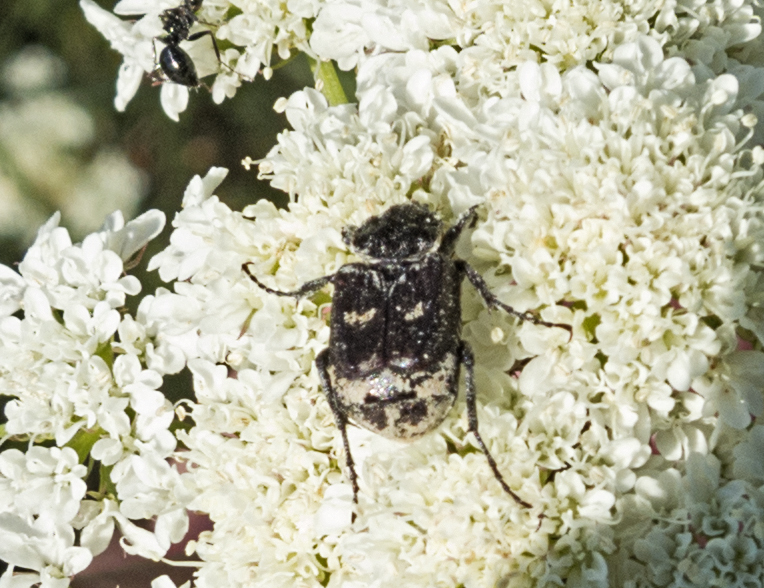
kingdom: Animalia
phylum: Arthropoda
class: Insecta
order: Coleoptera
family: Scarabaeidae
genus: Valgus
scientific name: Valgus hemipterus
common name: Bug flower chafer
